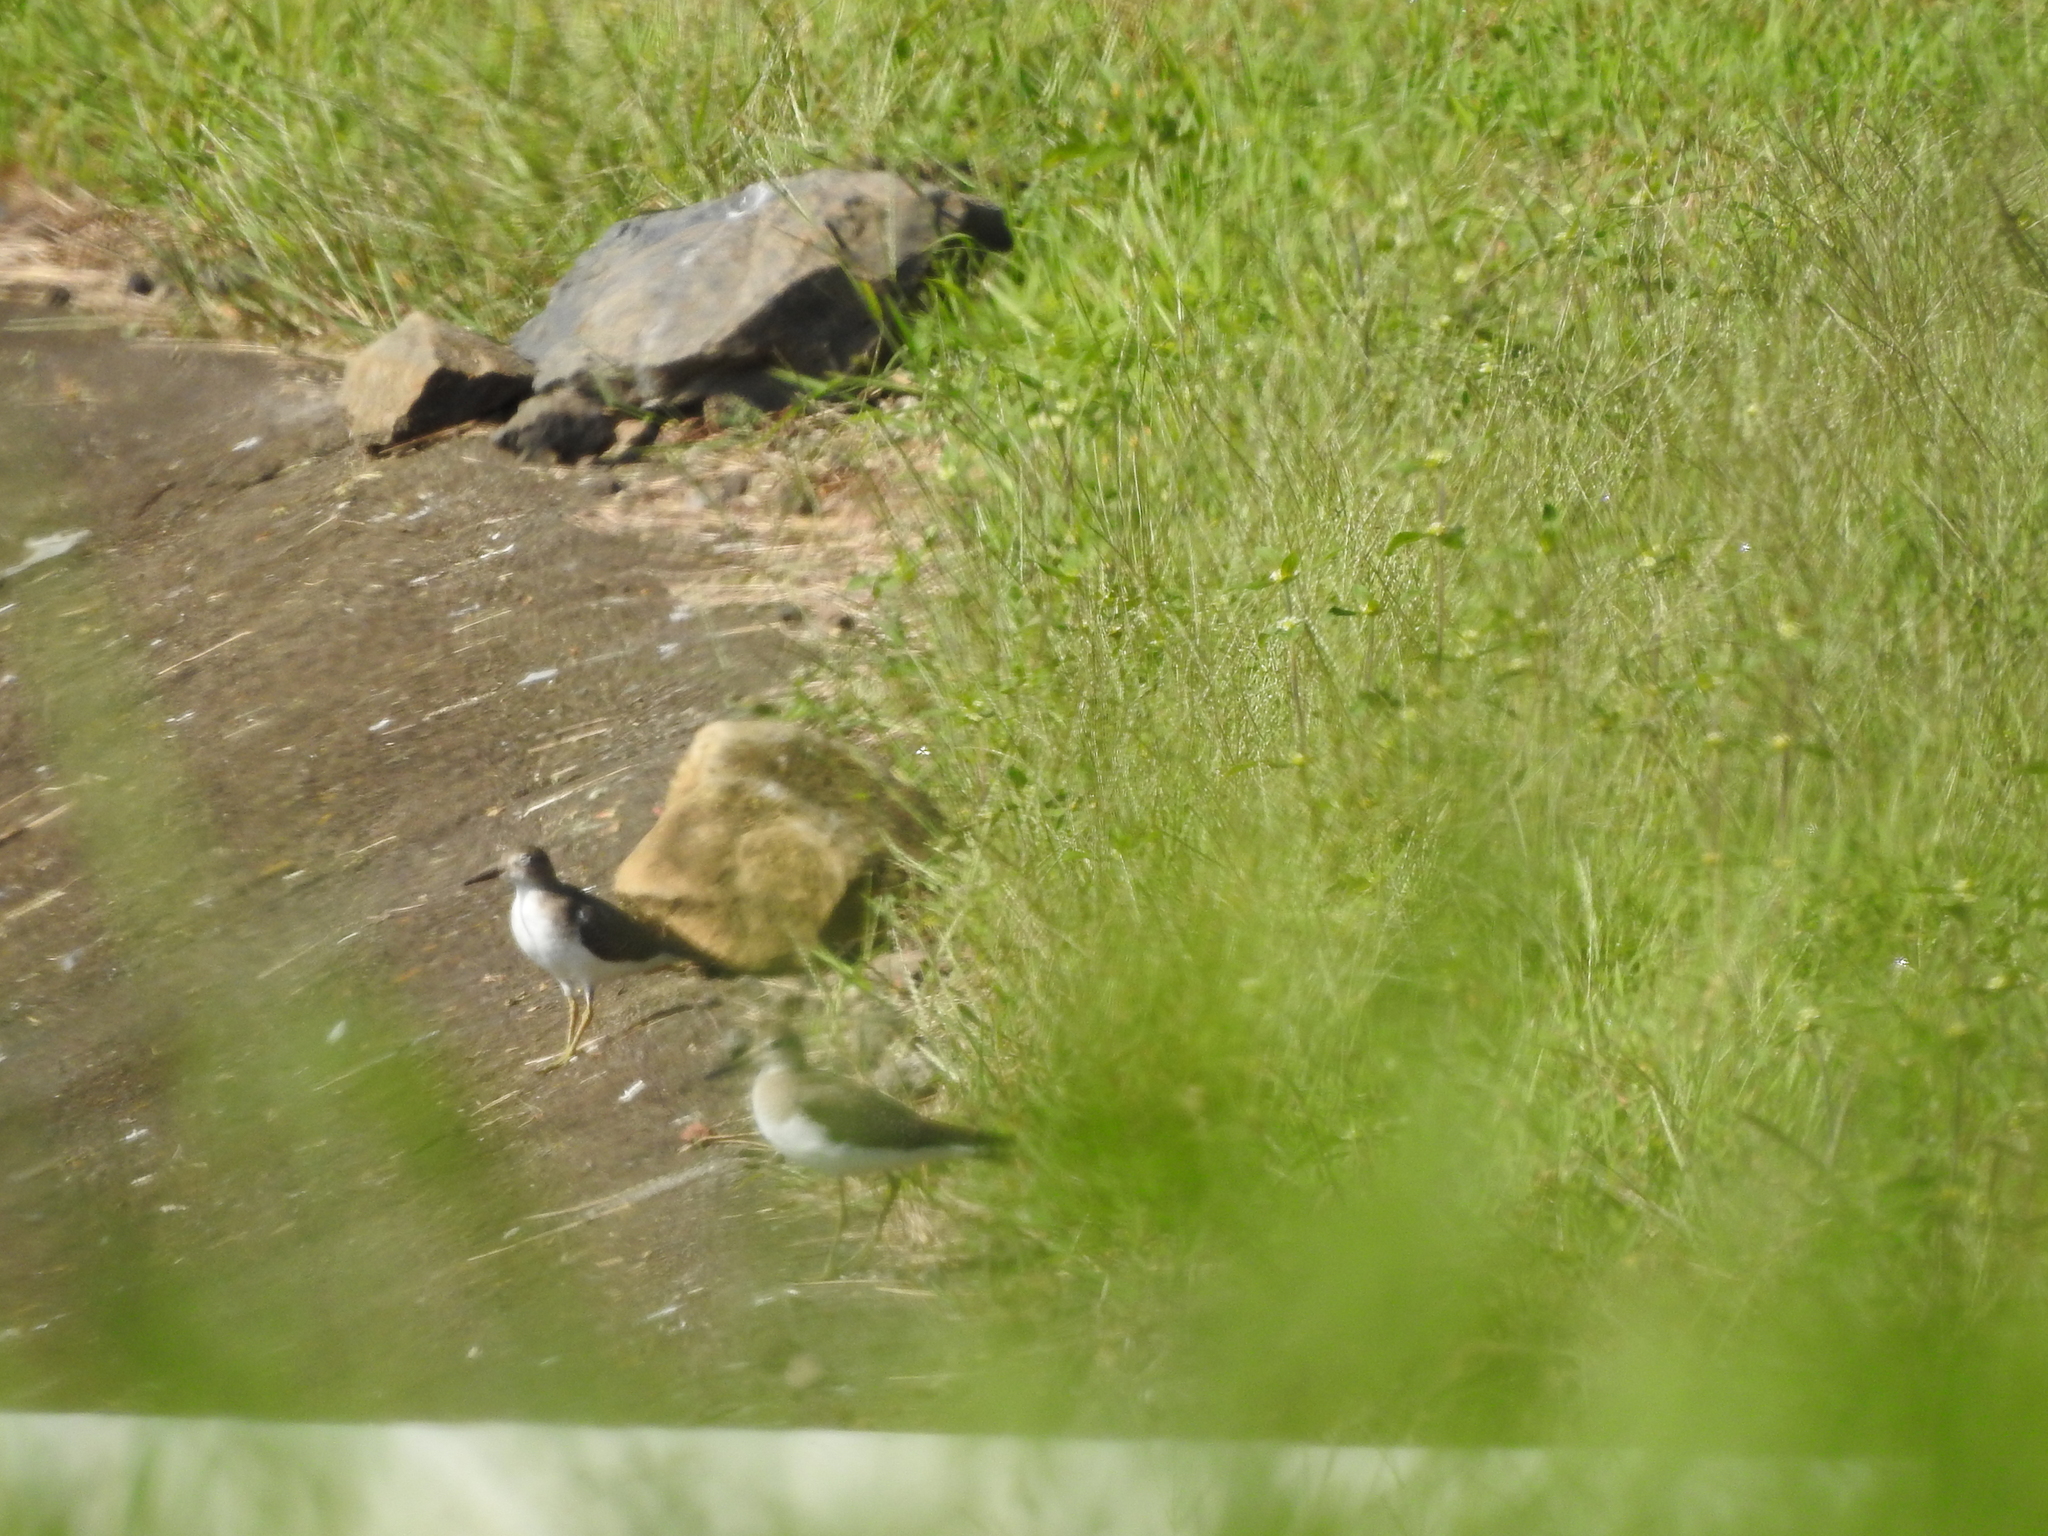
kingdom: Animalia
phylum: Chordata
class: Aves
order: Charadriiformes
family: Scolopacidae
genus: Actitis
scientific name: Actitis macularius
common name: Spotted sandpiper
